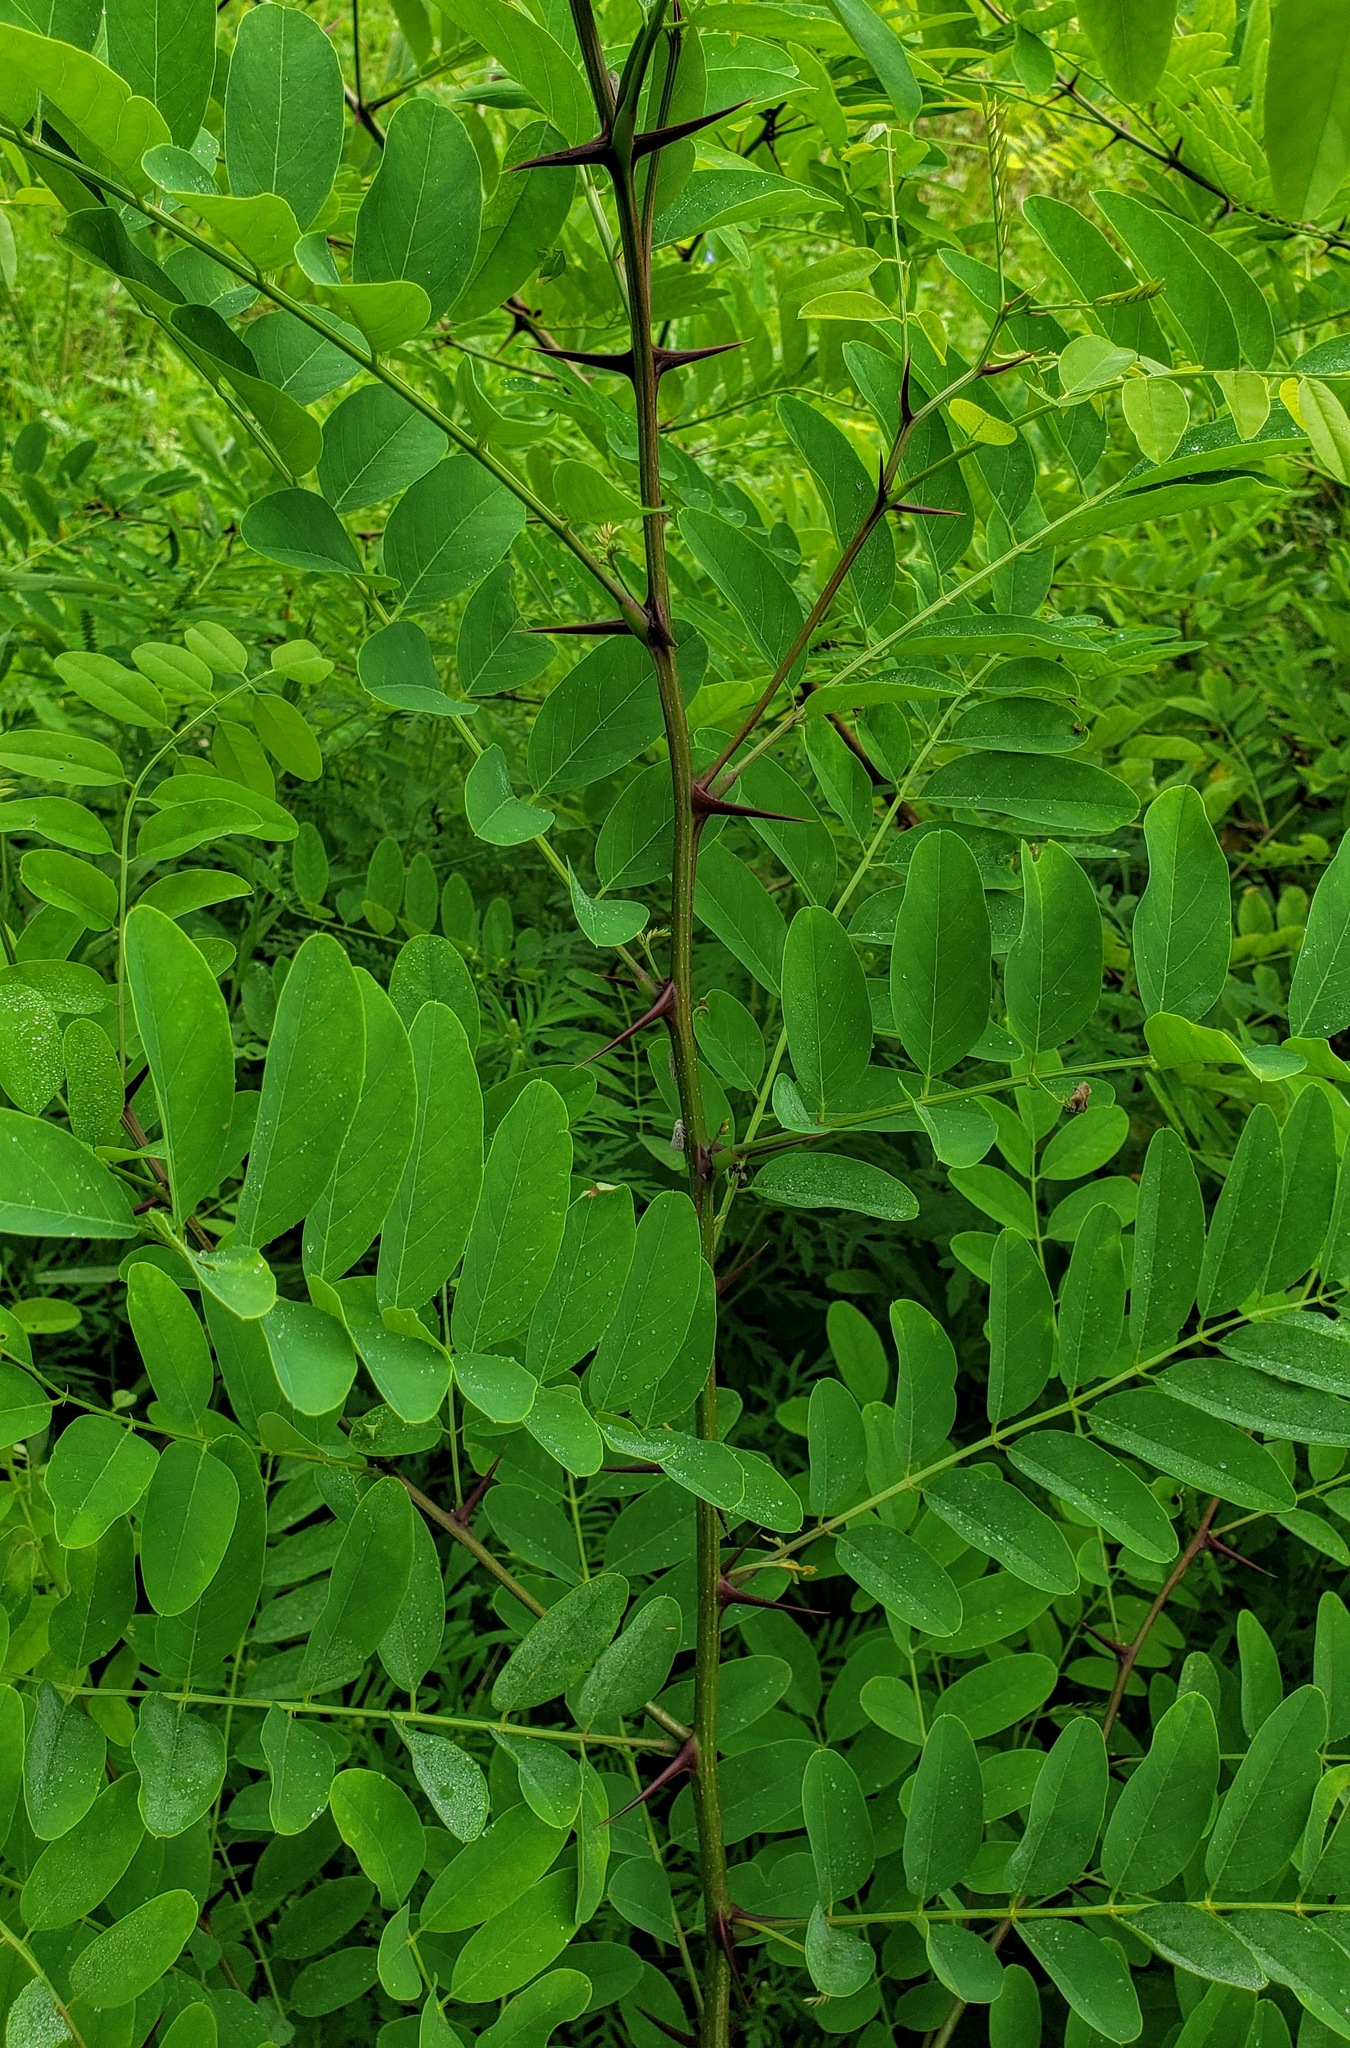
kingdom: Plantae
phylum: Tracheophyta
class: Magnoliopsida
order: Fabales
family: Fabaceae
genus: Robinia
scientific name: Robinia pseudoacacia
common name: Black locust
